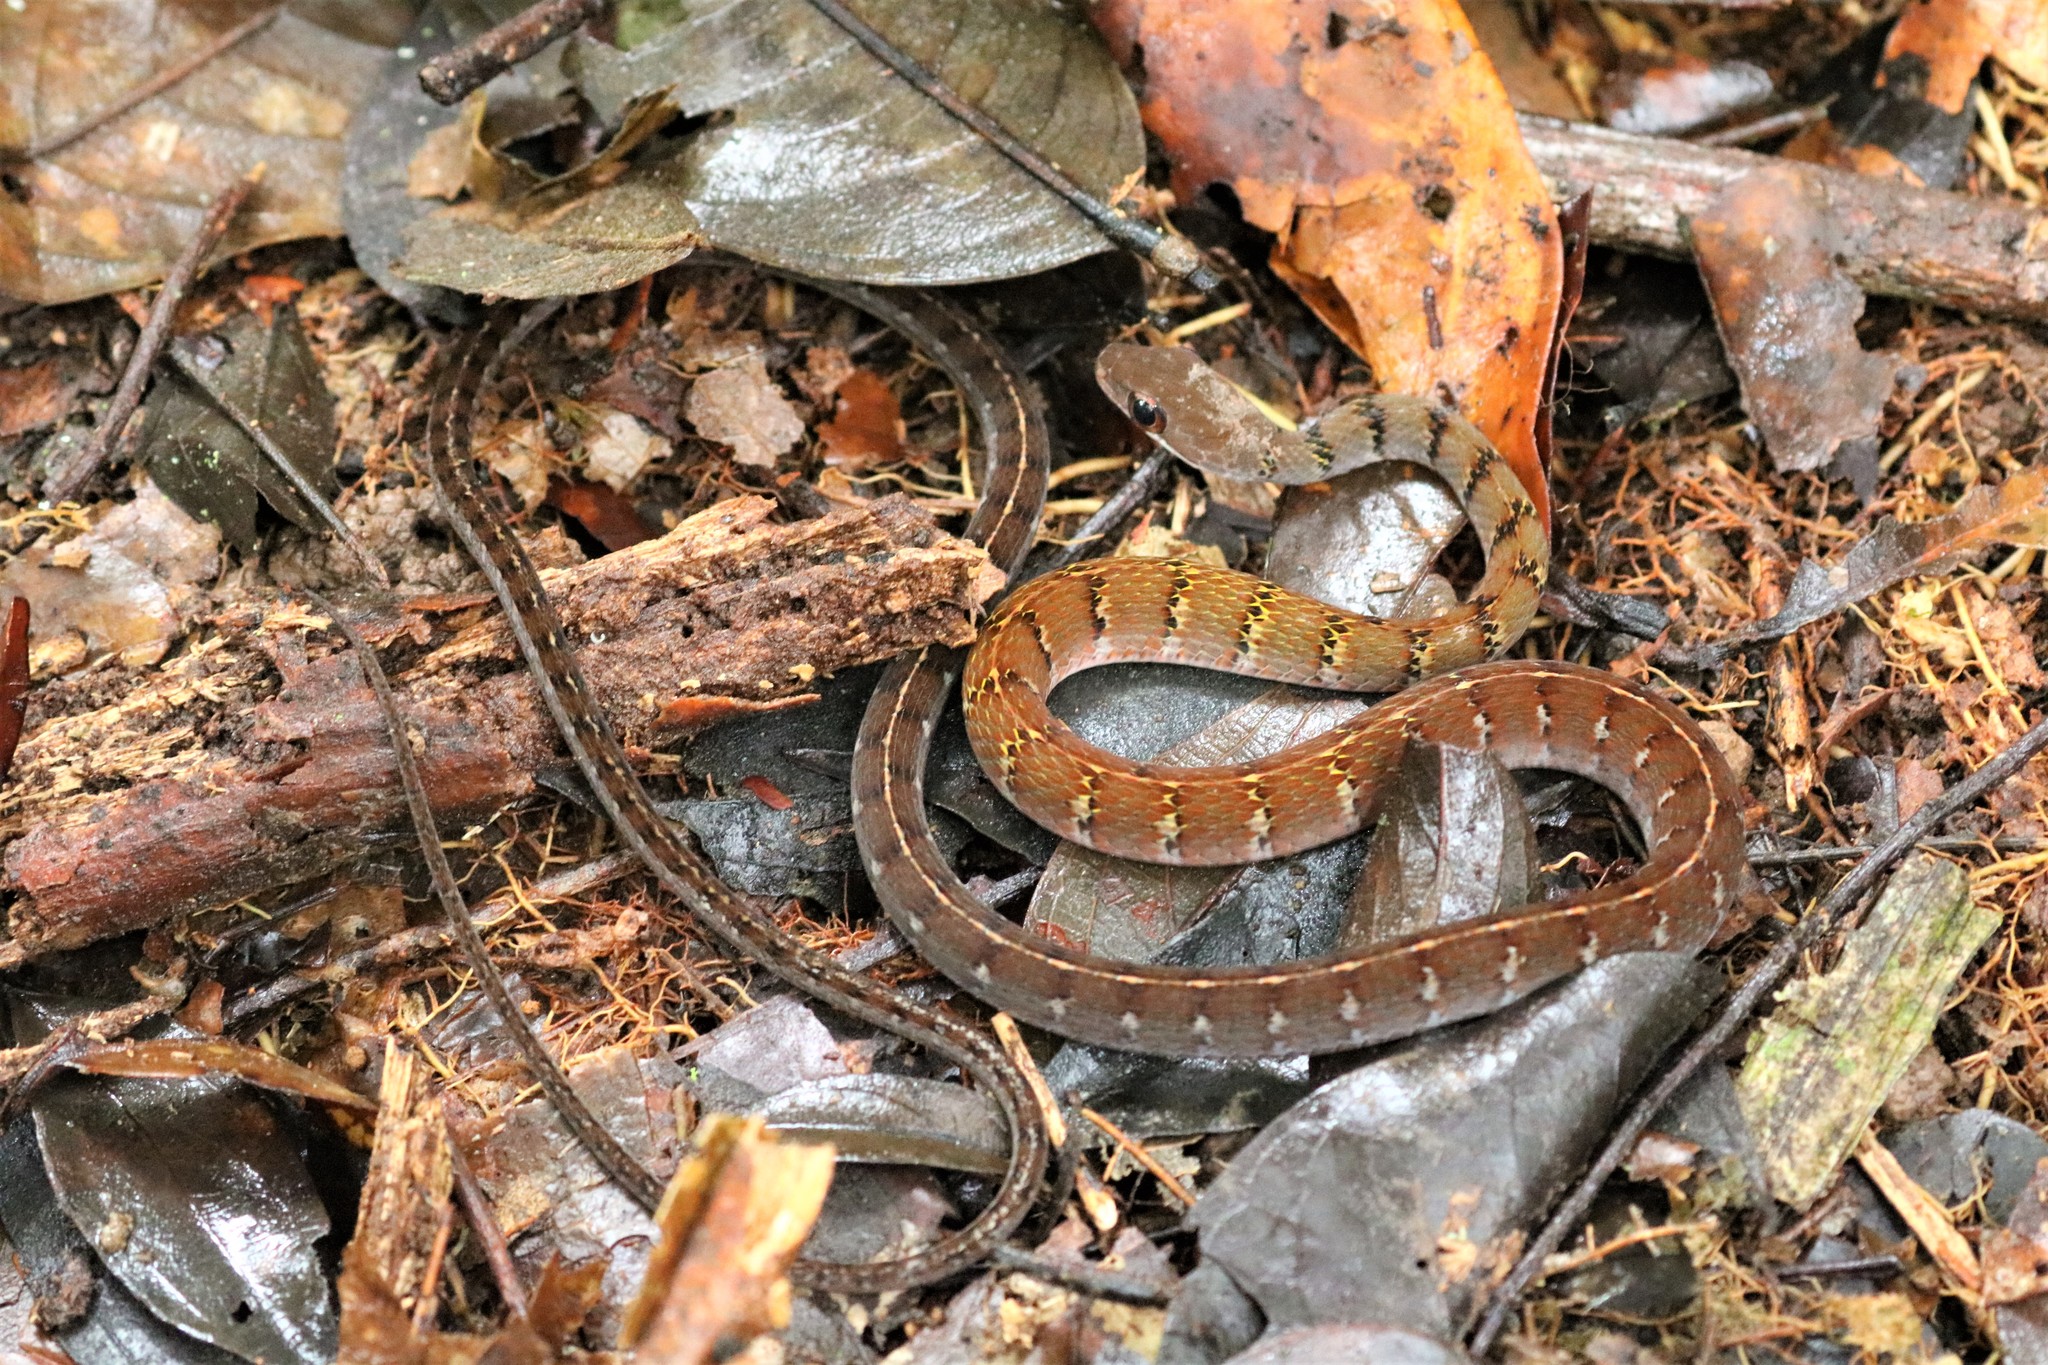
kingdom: Animalia
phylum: Chordata
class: Squamata
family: Colubridae
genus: Dendrophidion
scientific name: Dendrophidion dendrophis
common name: Olive forest racer
